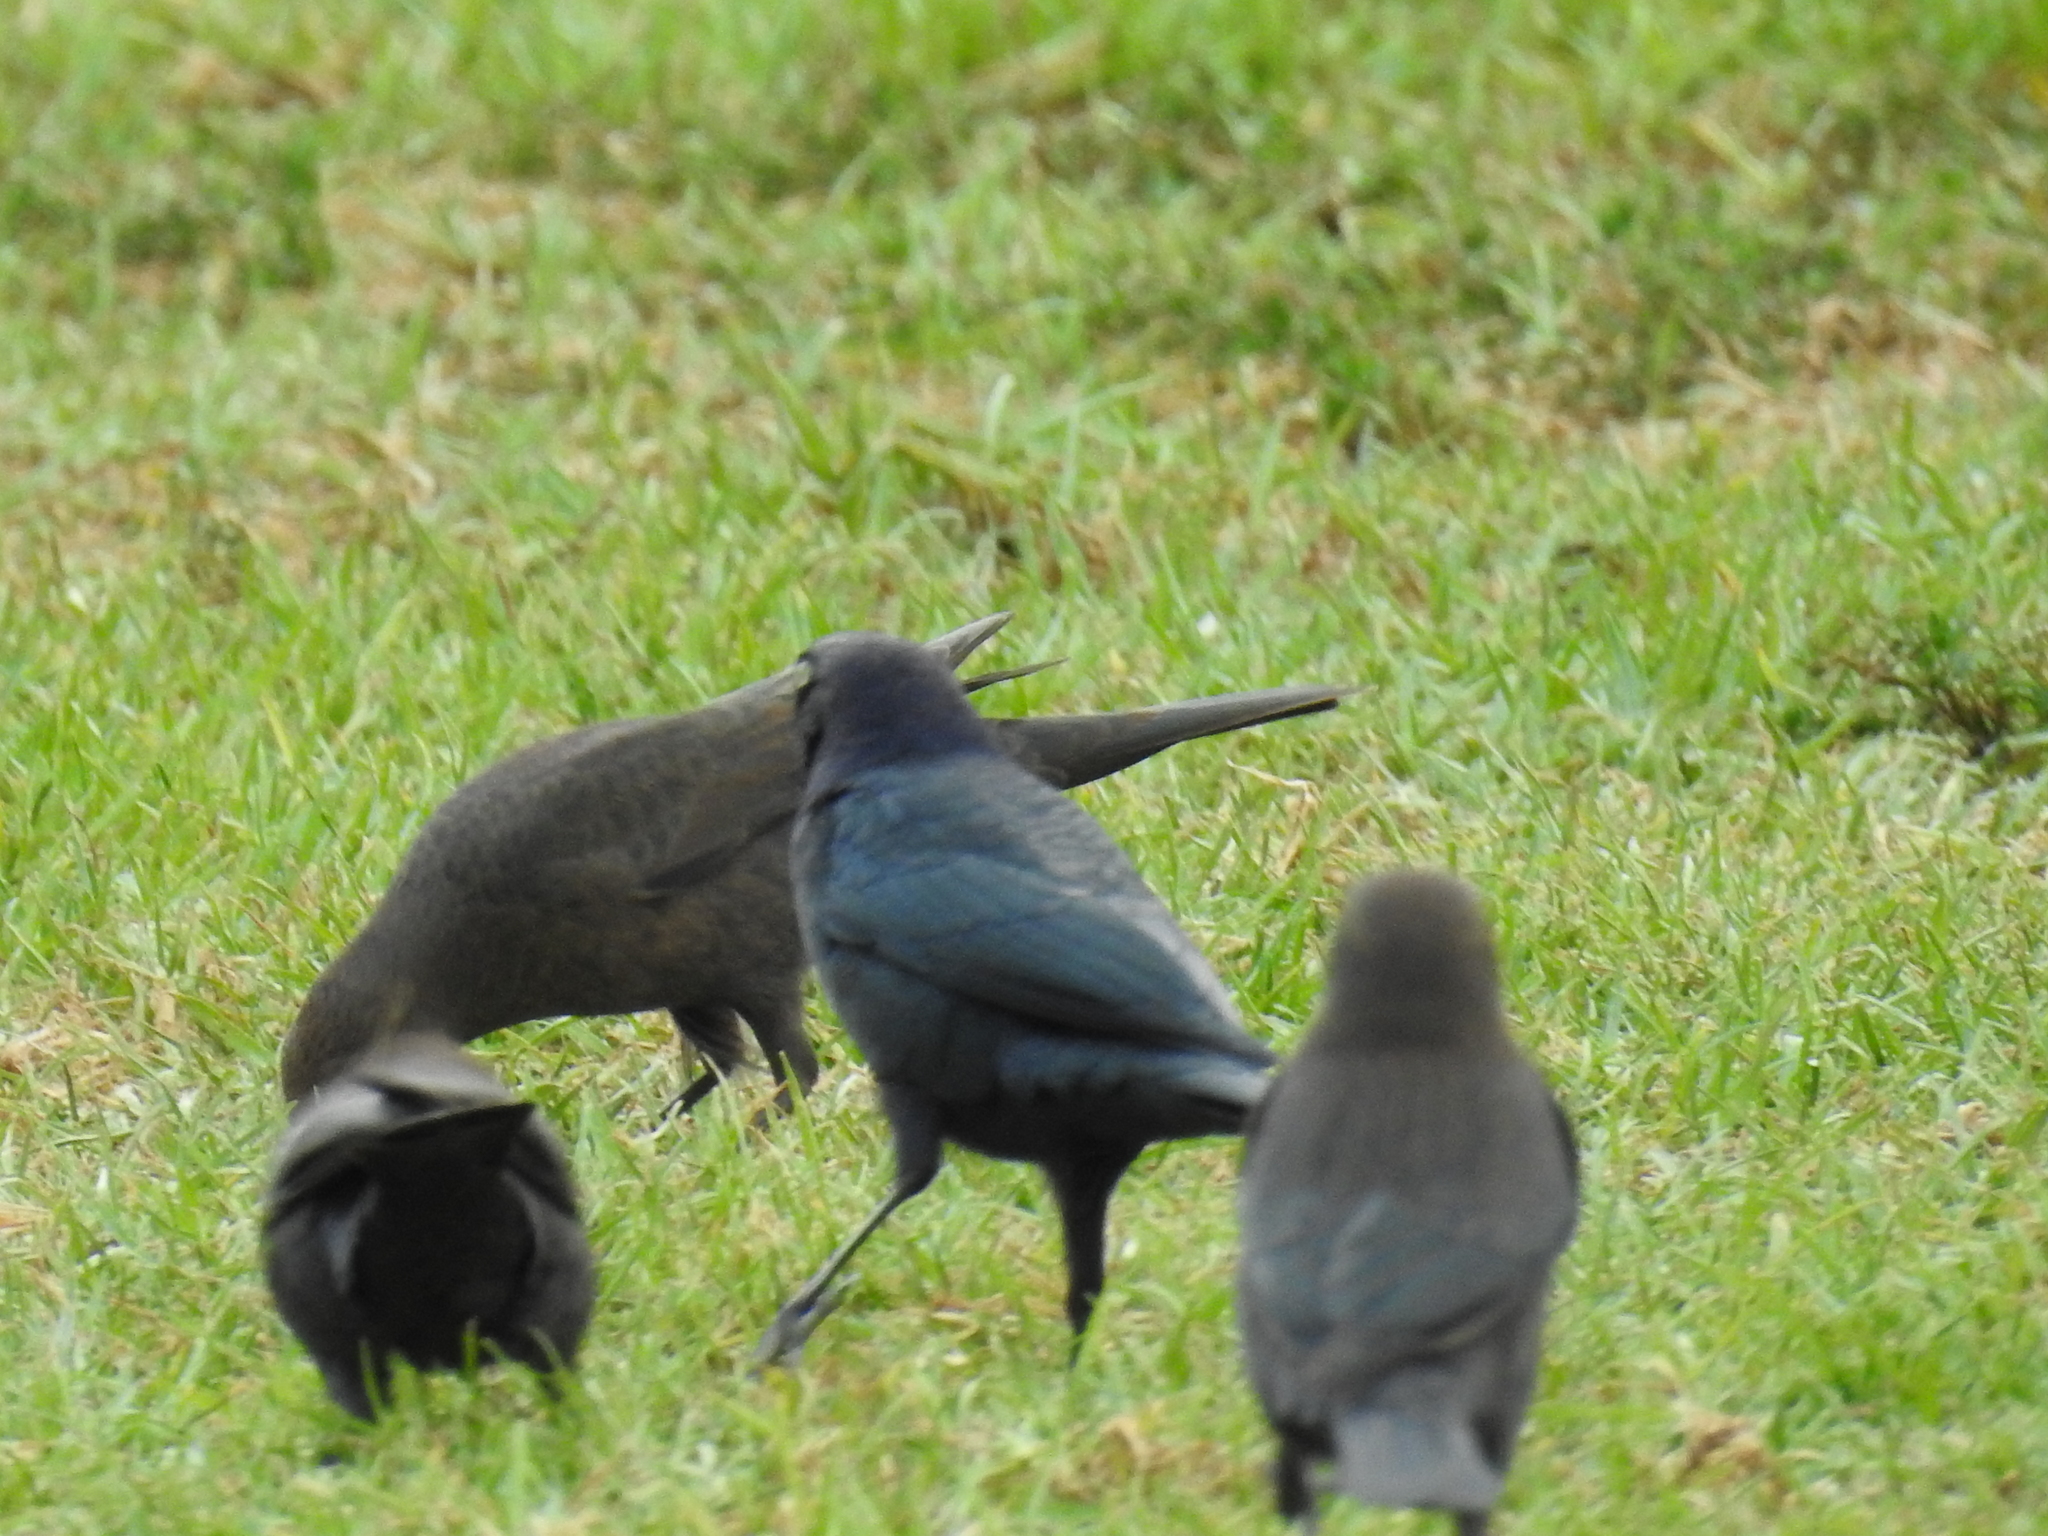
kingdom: Animalia
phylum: Chordata
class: Aves
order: Passeriformes
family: Icteridae
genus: Euphagus
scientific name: Euphagus cyanocephalus
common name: Brewer's blackbird
